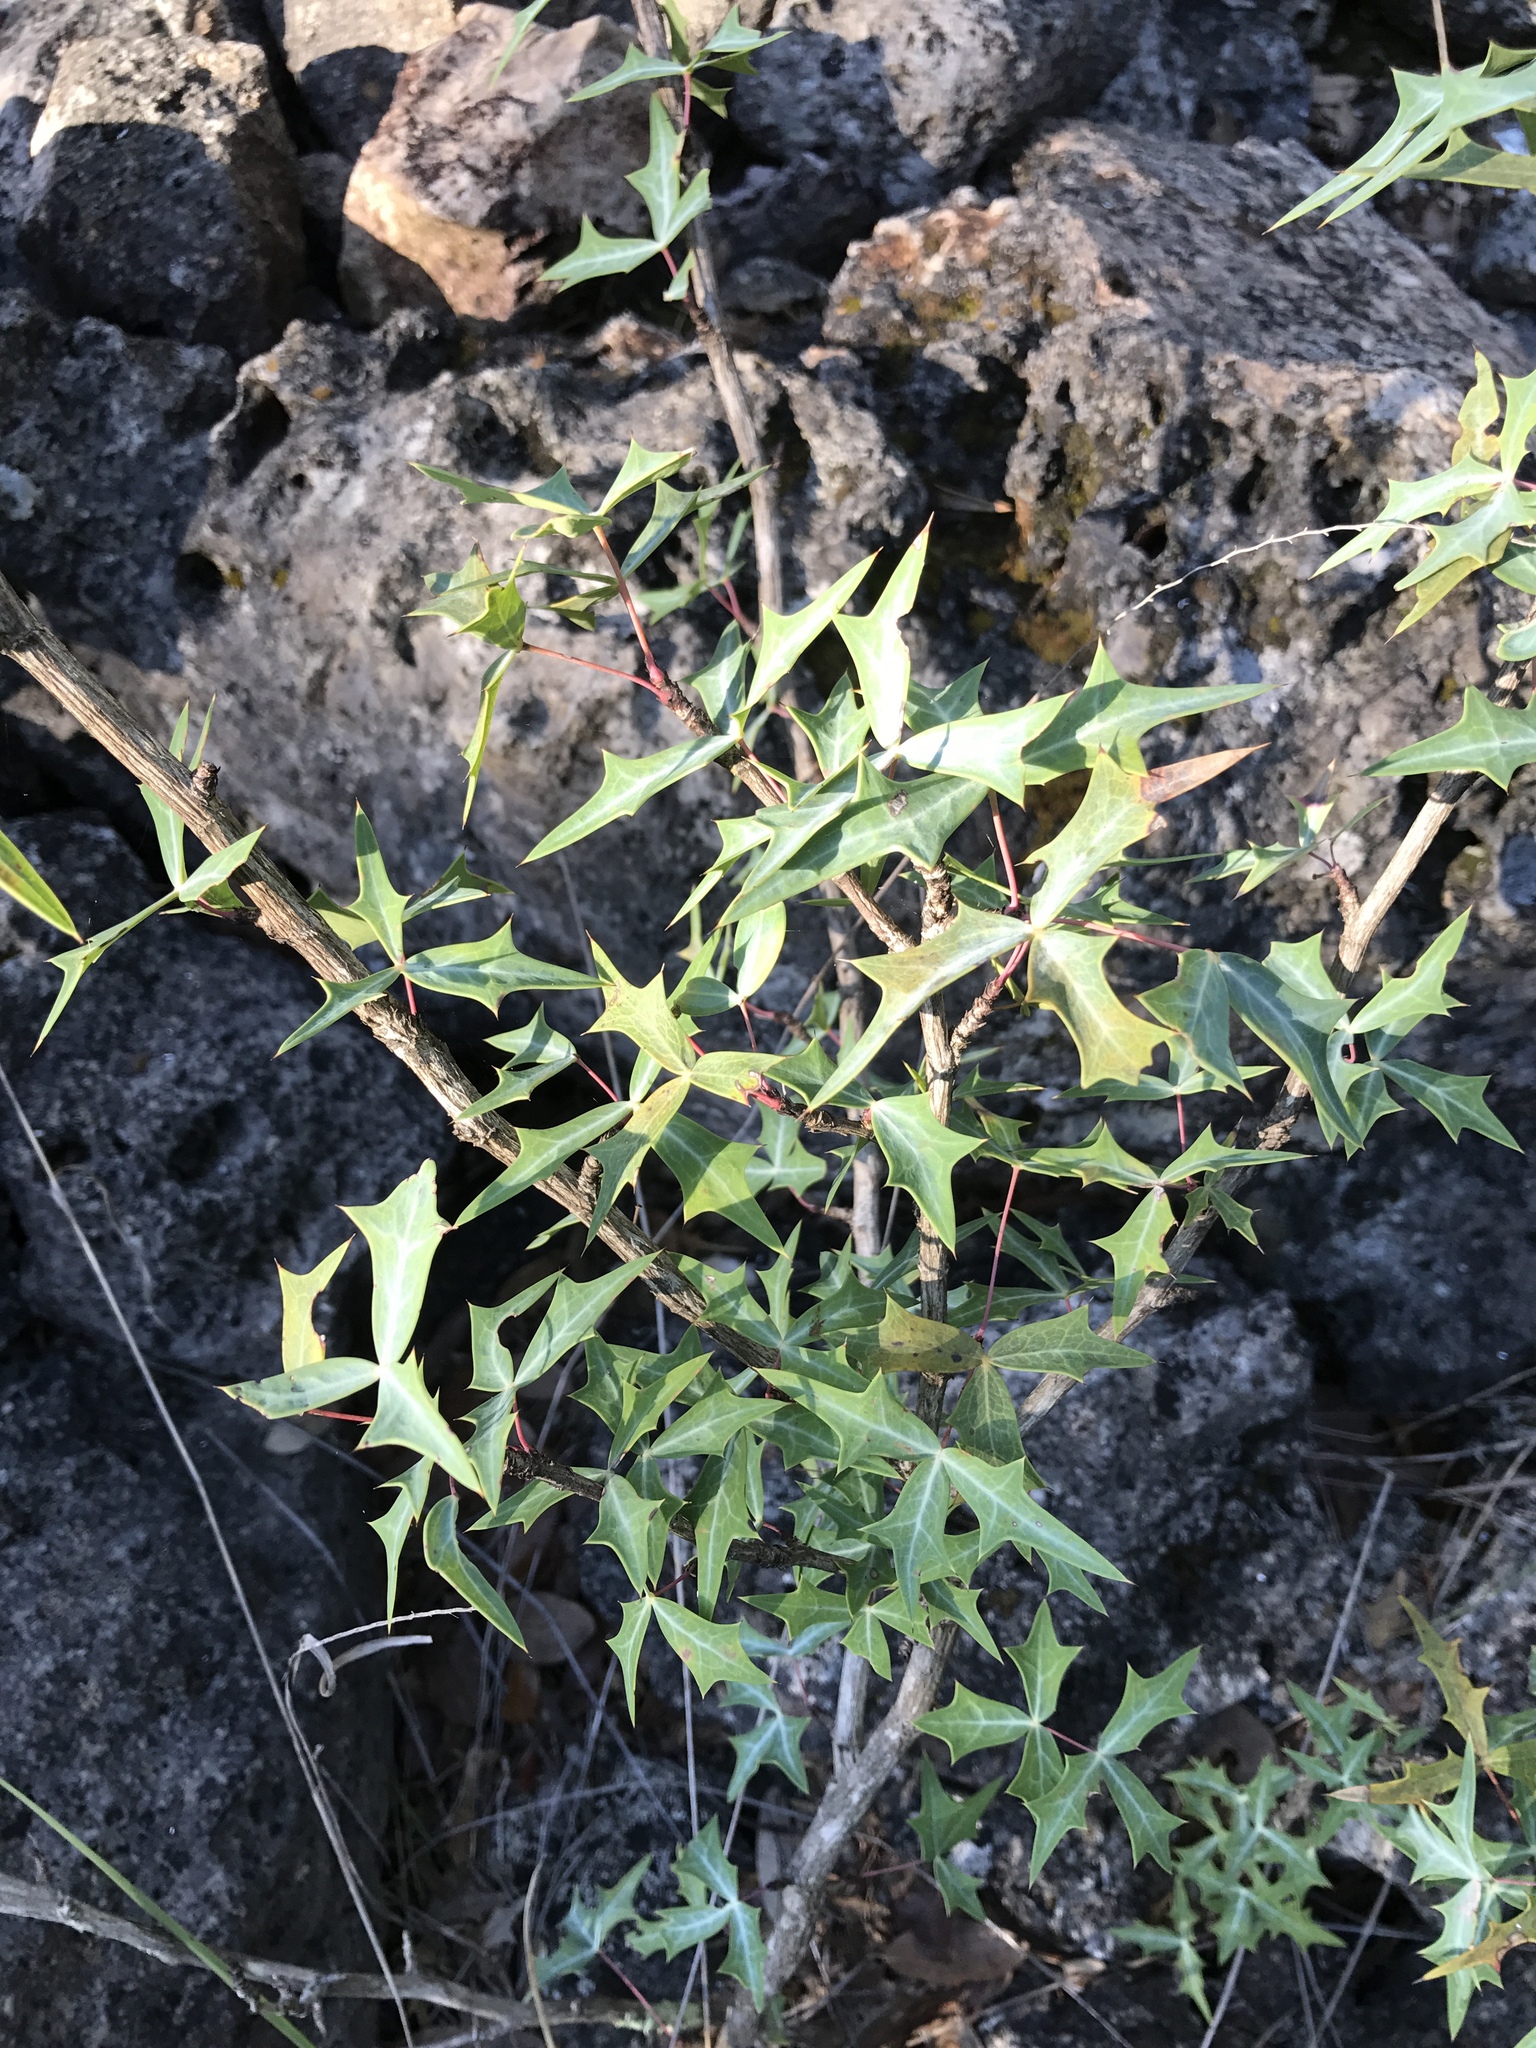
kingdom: Plantae
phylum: Tracheophyta
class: Magnoliopsida
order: Ranunculales
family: Berberidaceae
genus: Alloberberis
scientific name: Alloberberis trifoliolata
